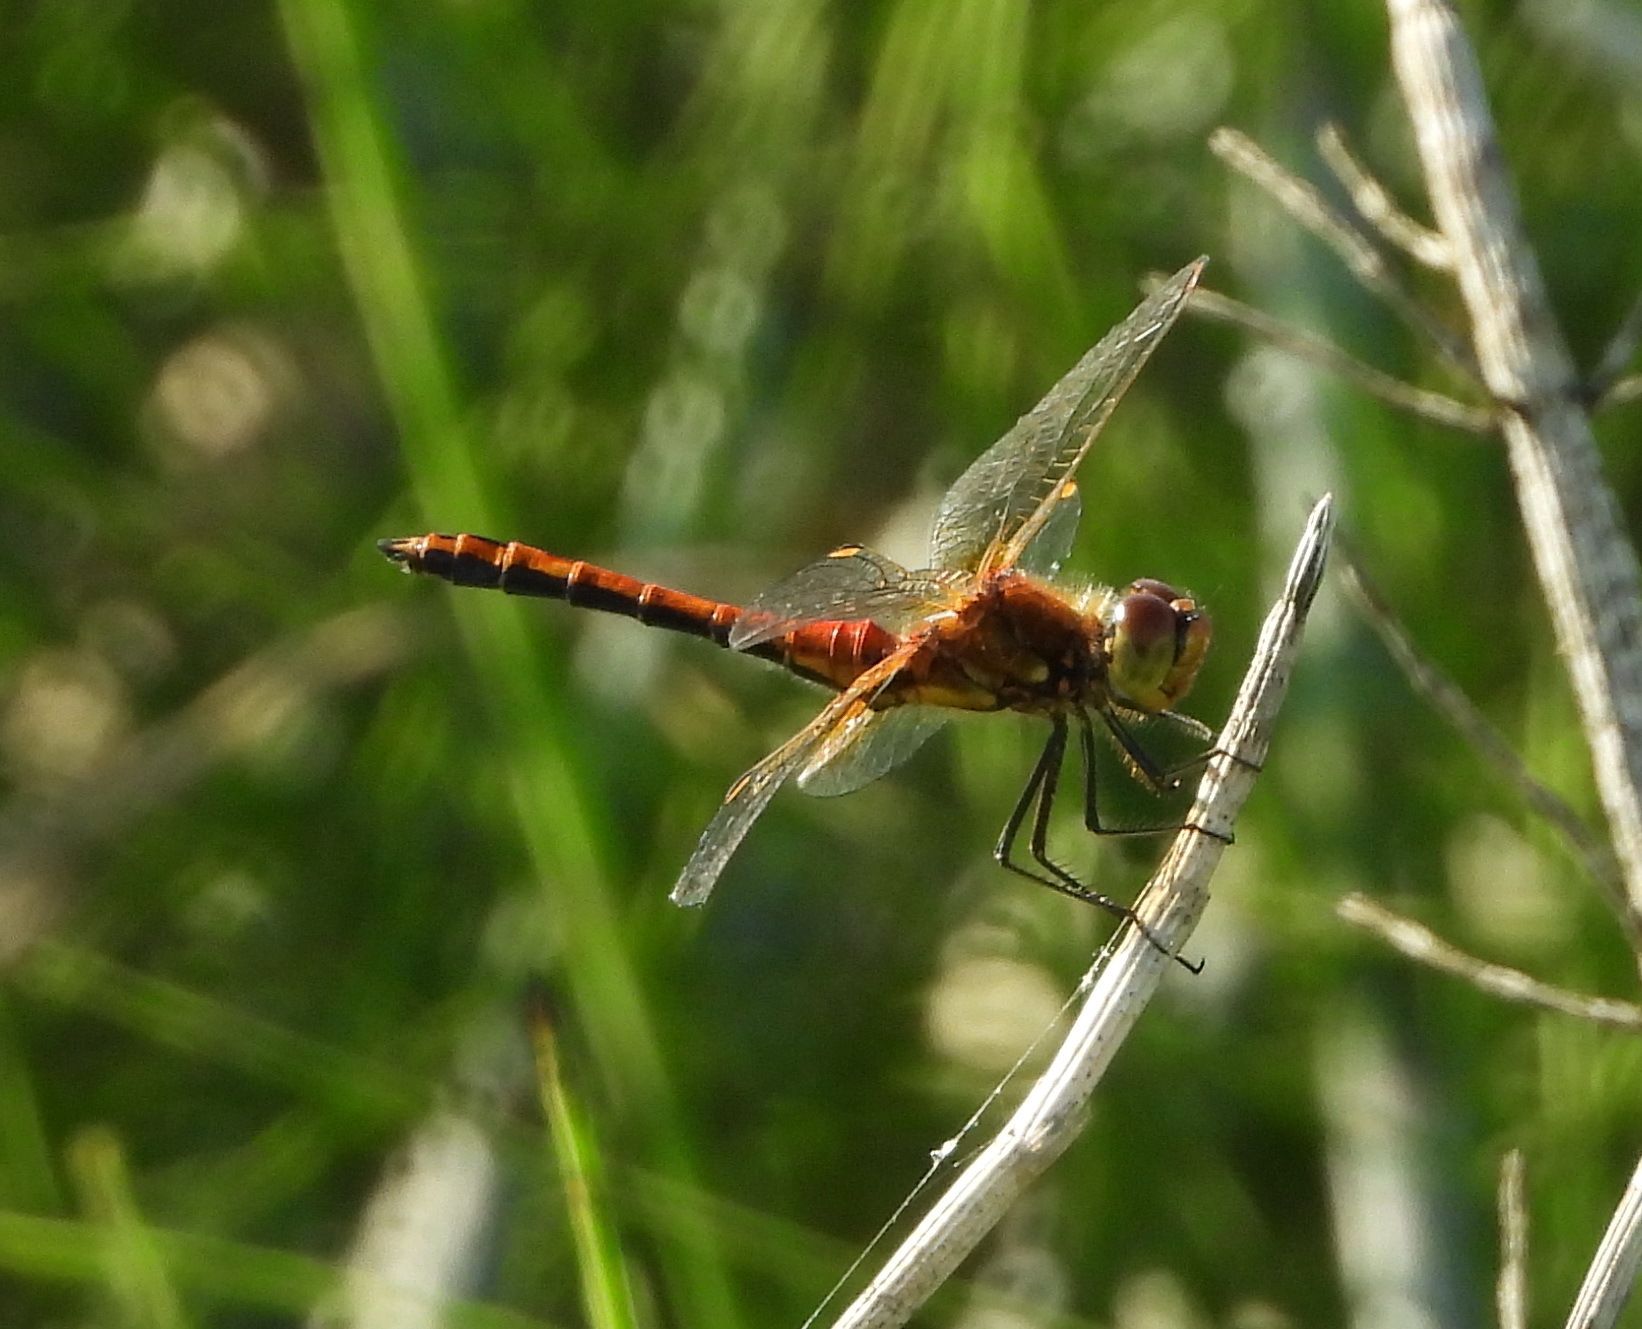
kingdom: Animalia
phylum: Arthropoda
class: Insecta
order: Odonata
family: Libellulidae
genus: Sympetrum
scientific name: Sympetrum flaveolum
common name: Yellow-winged darter
